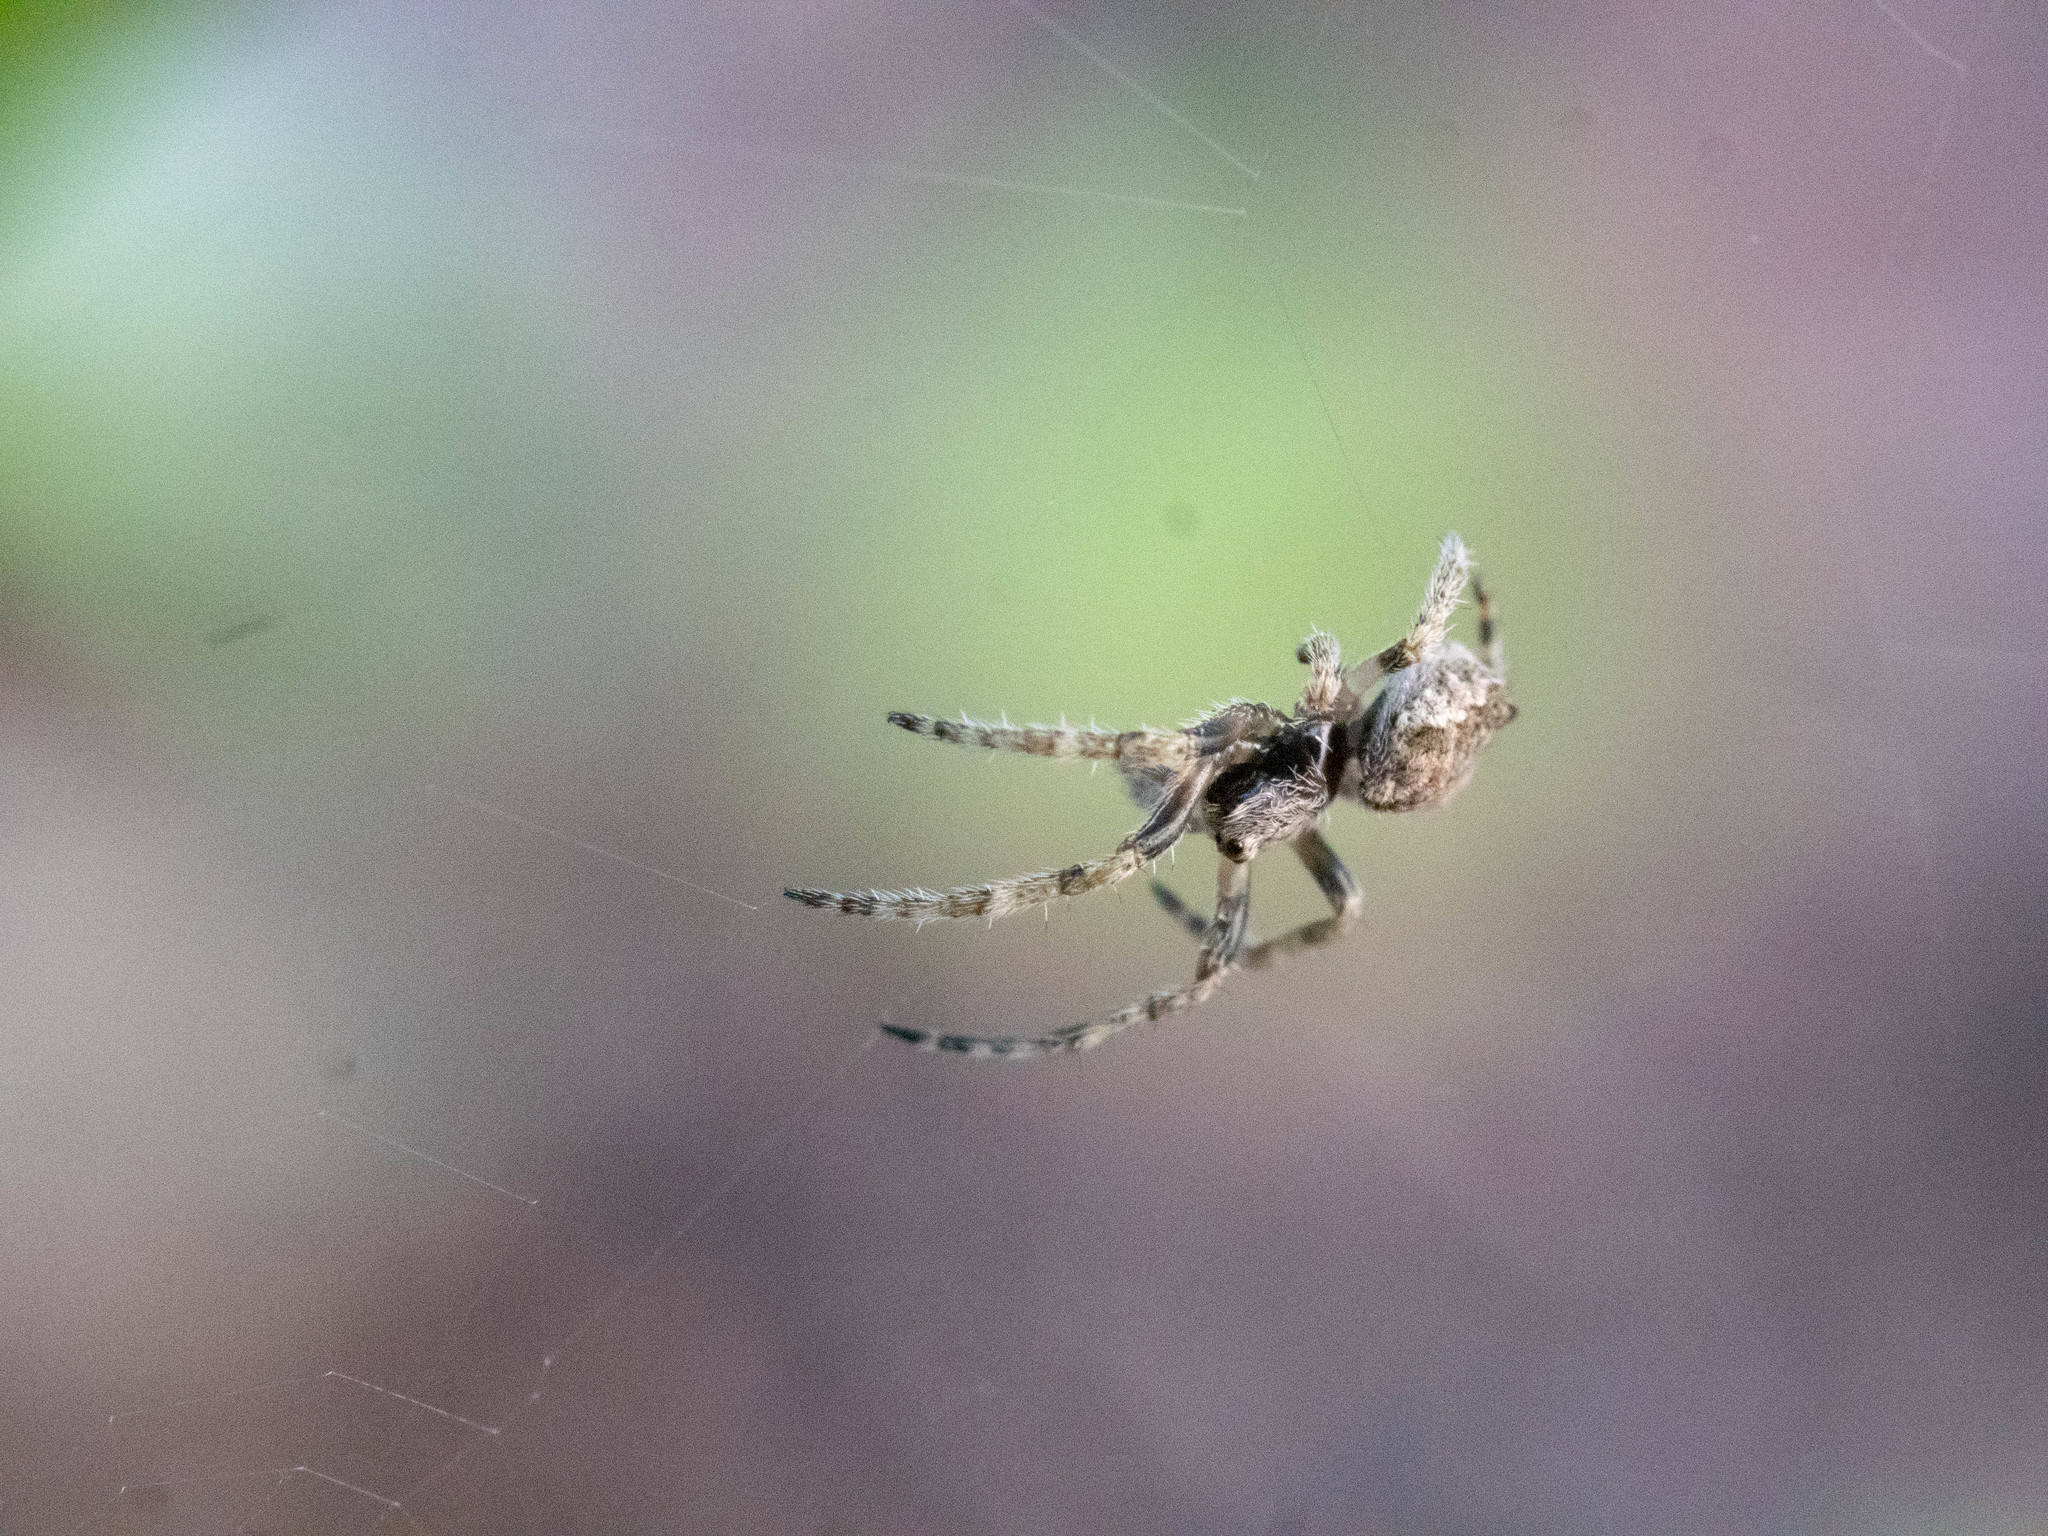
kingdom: Animalia
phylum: Arthropoda
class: Arachnida
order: Araneae
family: Araneidae
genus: Eriophora
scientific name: Eriophora pustulosa
